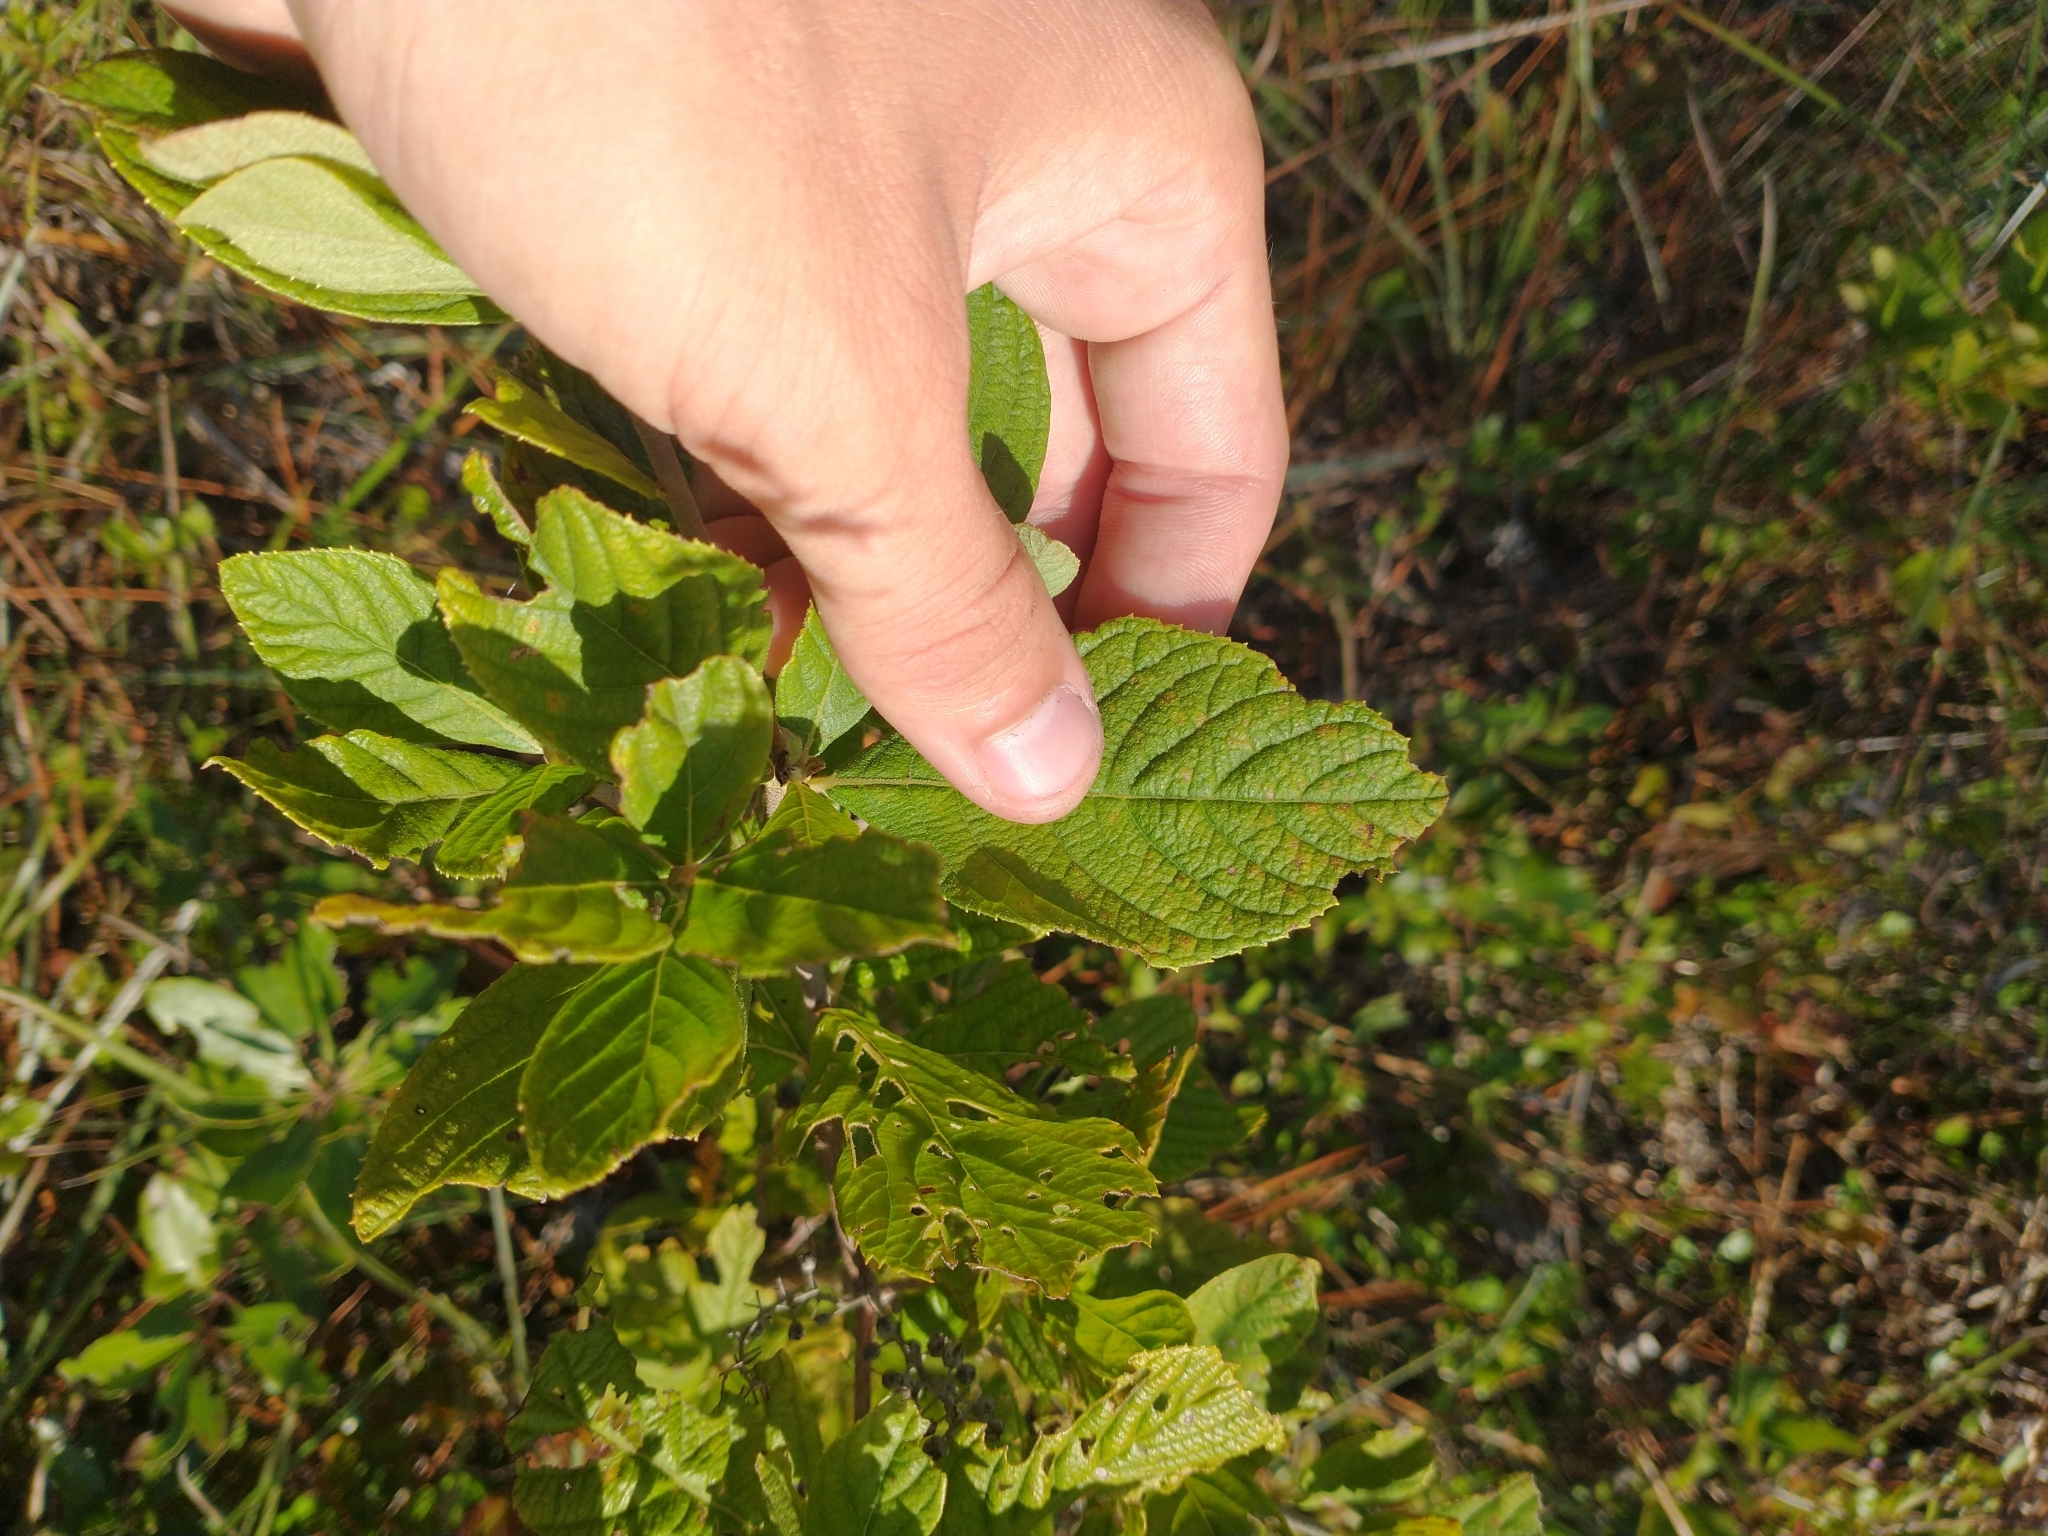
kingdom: Plantae
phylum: Tracheophyta
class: Magnoliopsida
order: Ericales
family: Clethraceae
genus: Clethra
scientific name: Clethra alnifolia
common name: Sweet pepperbush
